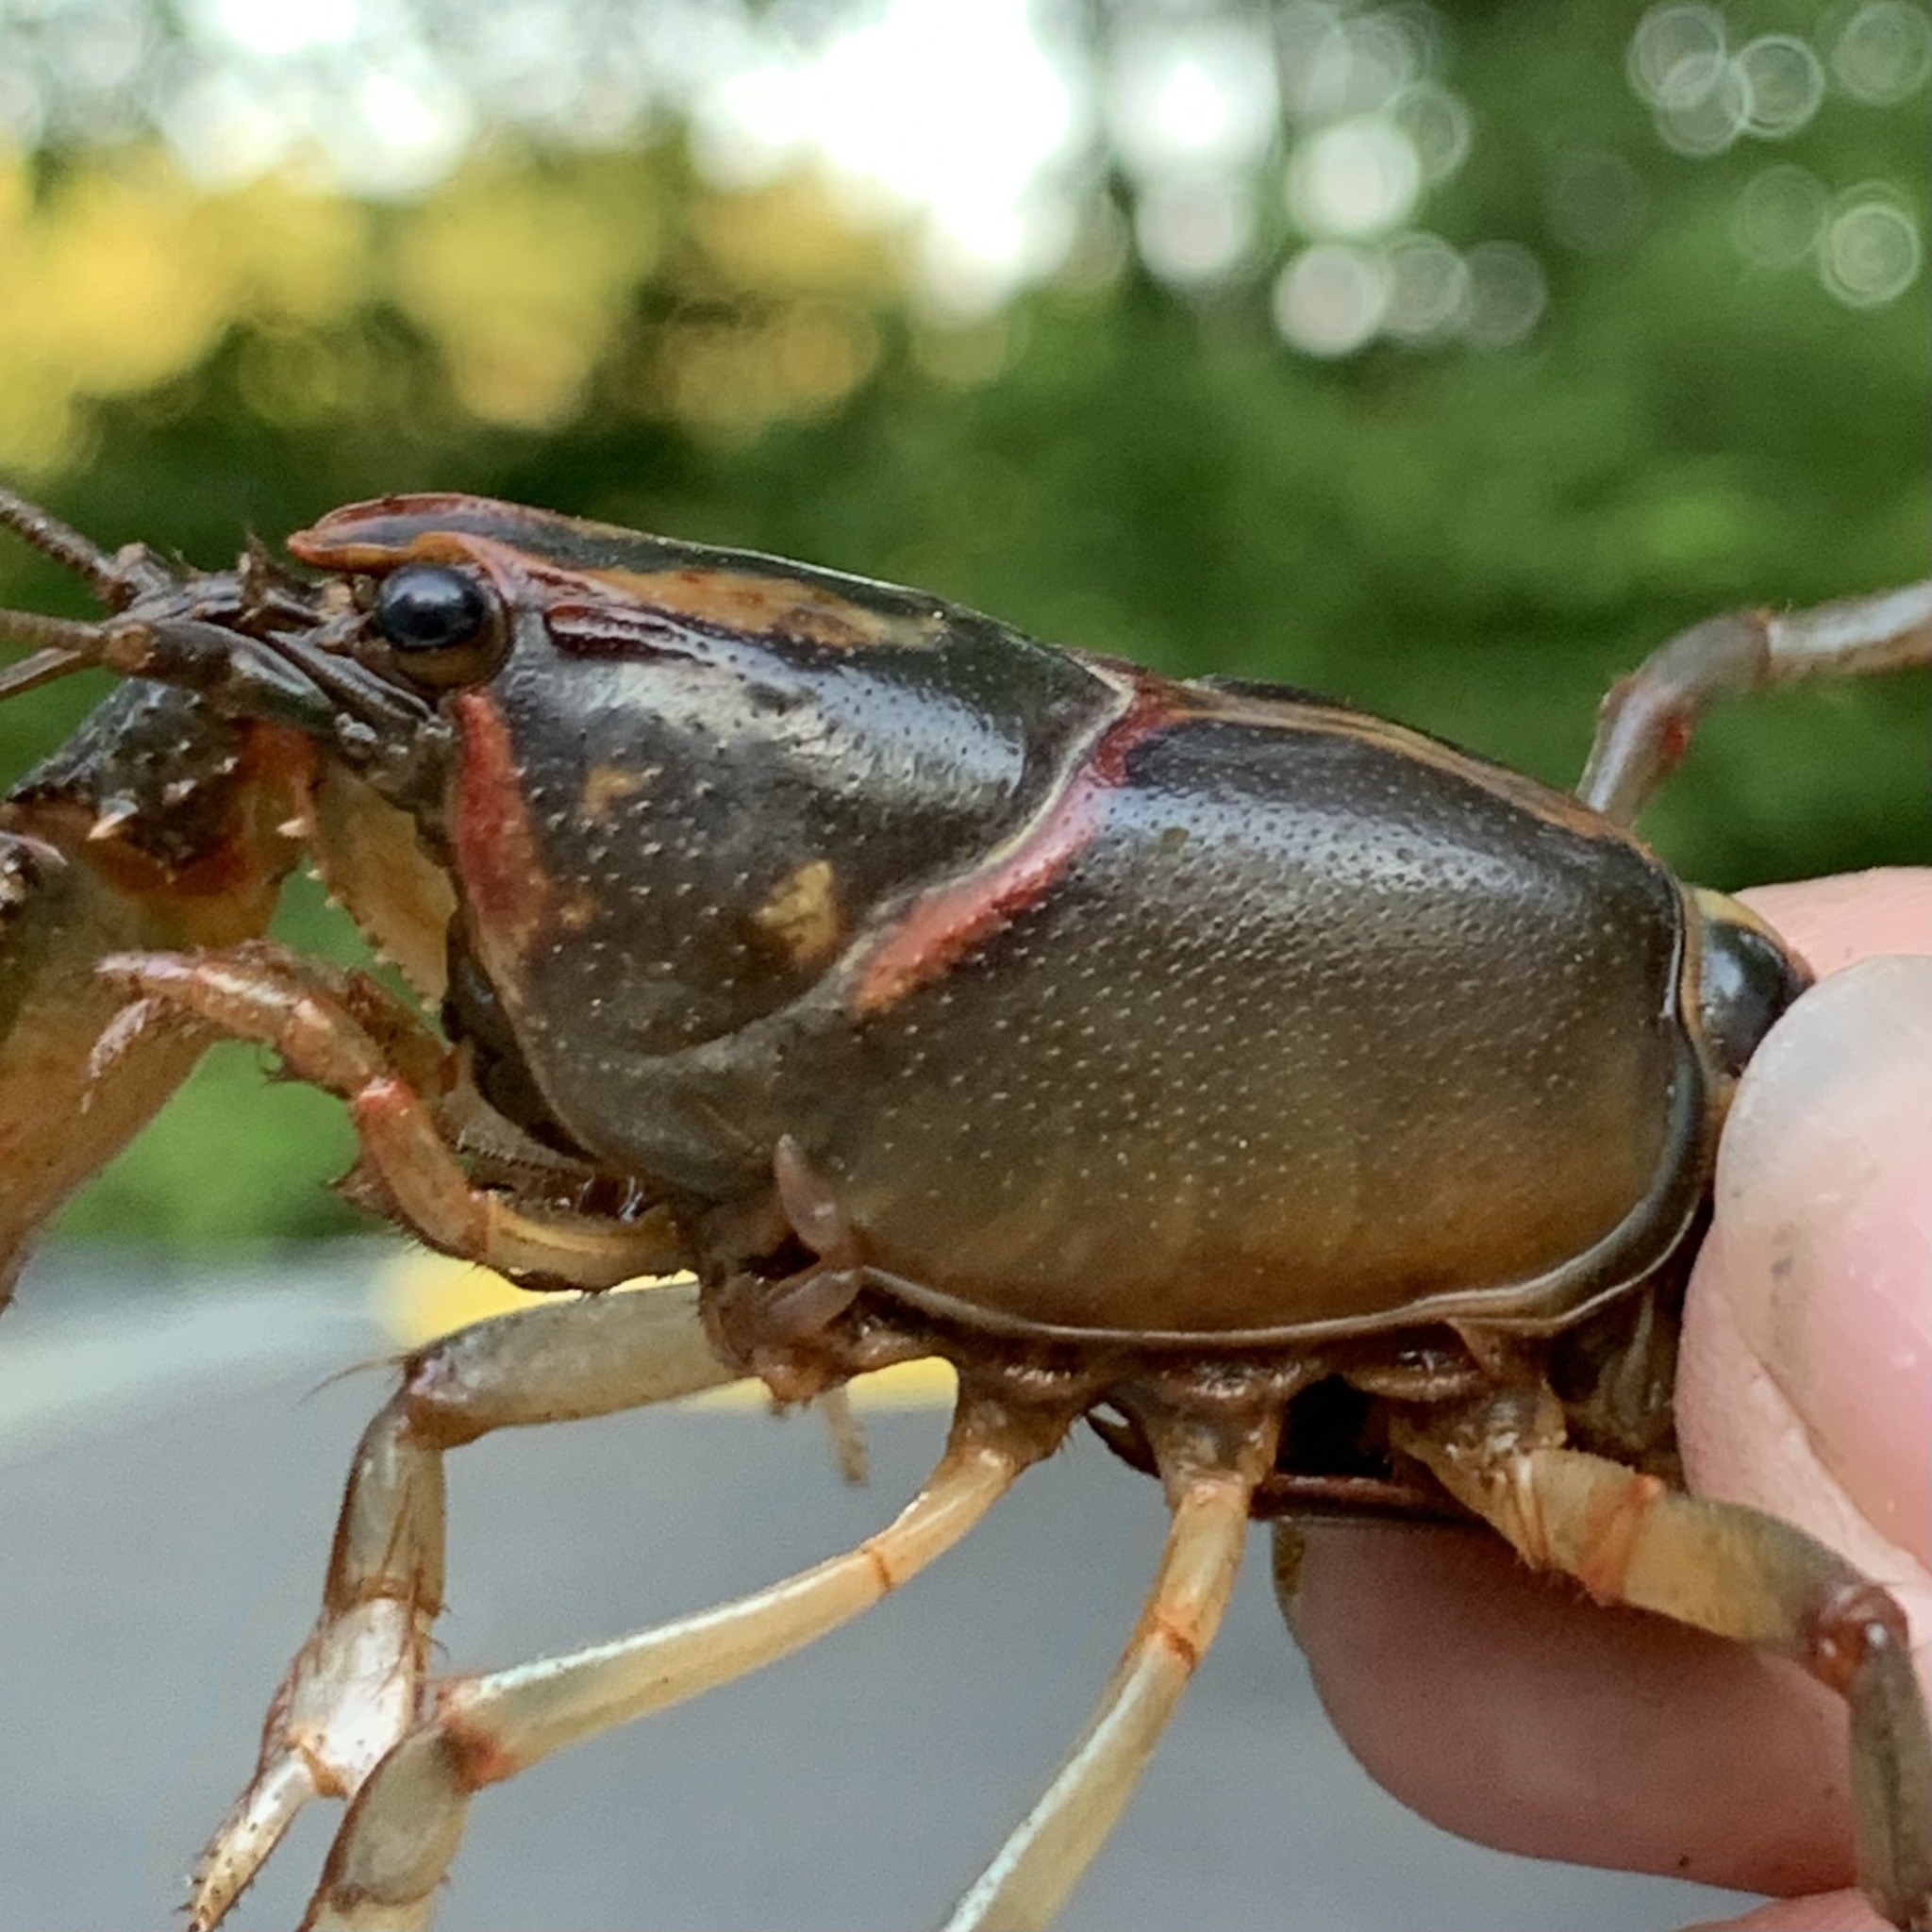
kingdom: Animalia
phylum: Arthropoda
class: Malacostraca
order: Decapoda
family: Cambaridae
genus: Lacunicambarus
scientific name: Lacunicambarus ludovicianus
